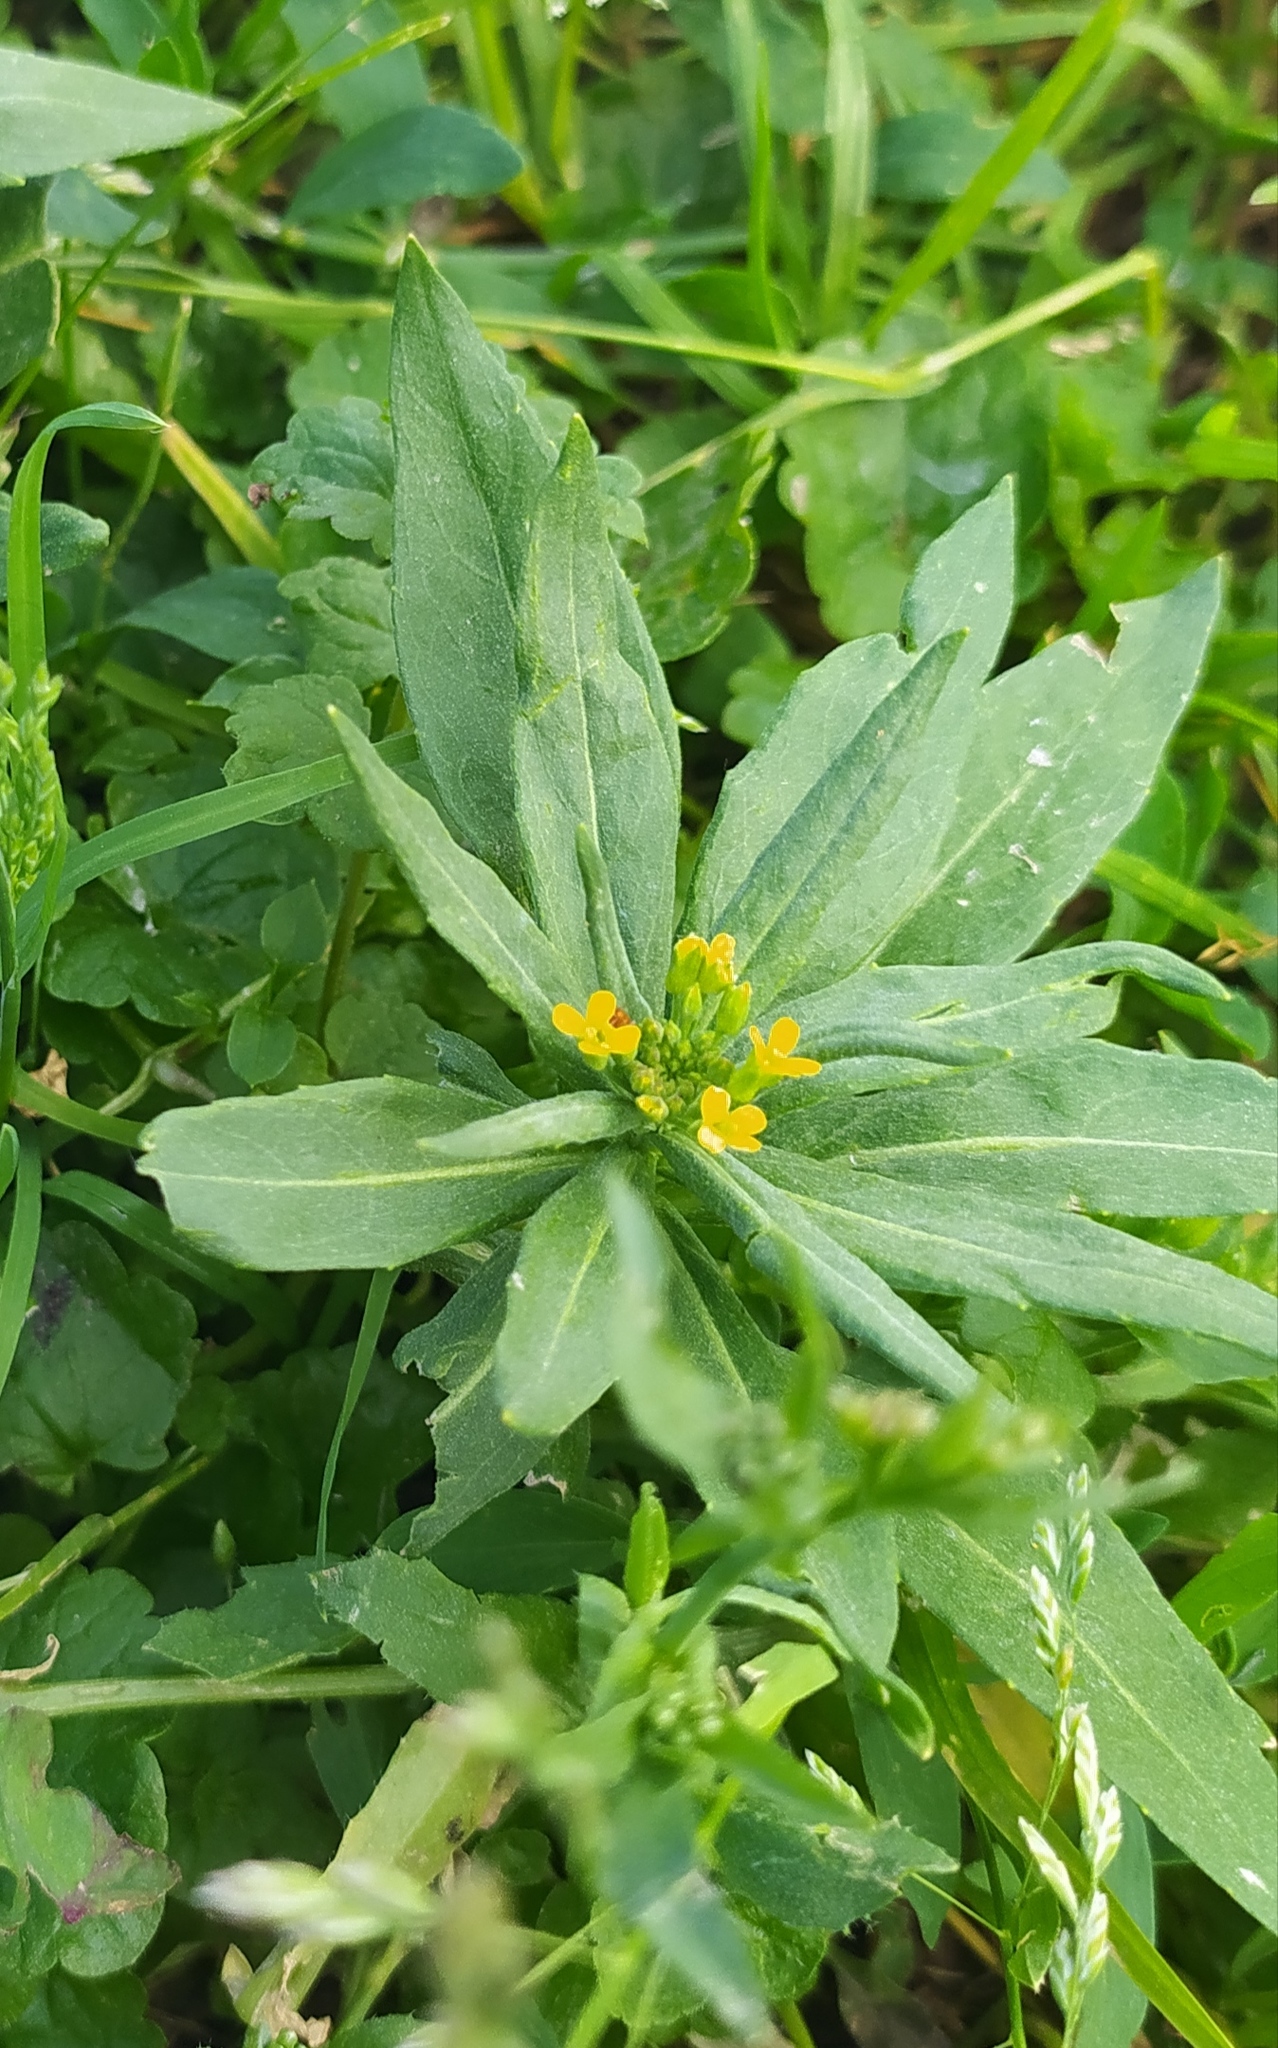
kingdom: Plantae
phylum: Tracheophyta
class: Magnoliopsida
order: Brassicales
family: Brassicaceae
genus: Erysimum
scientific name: Erysimum cheiranthoides
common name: Treacle mustard
